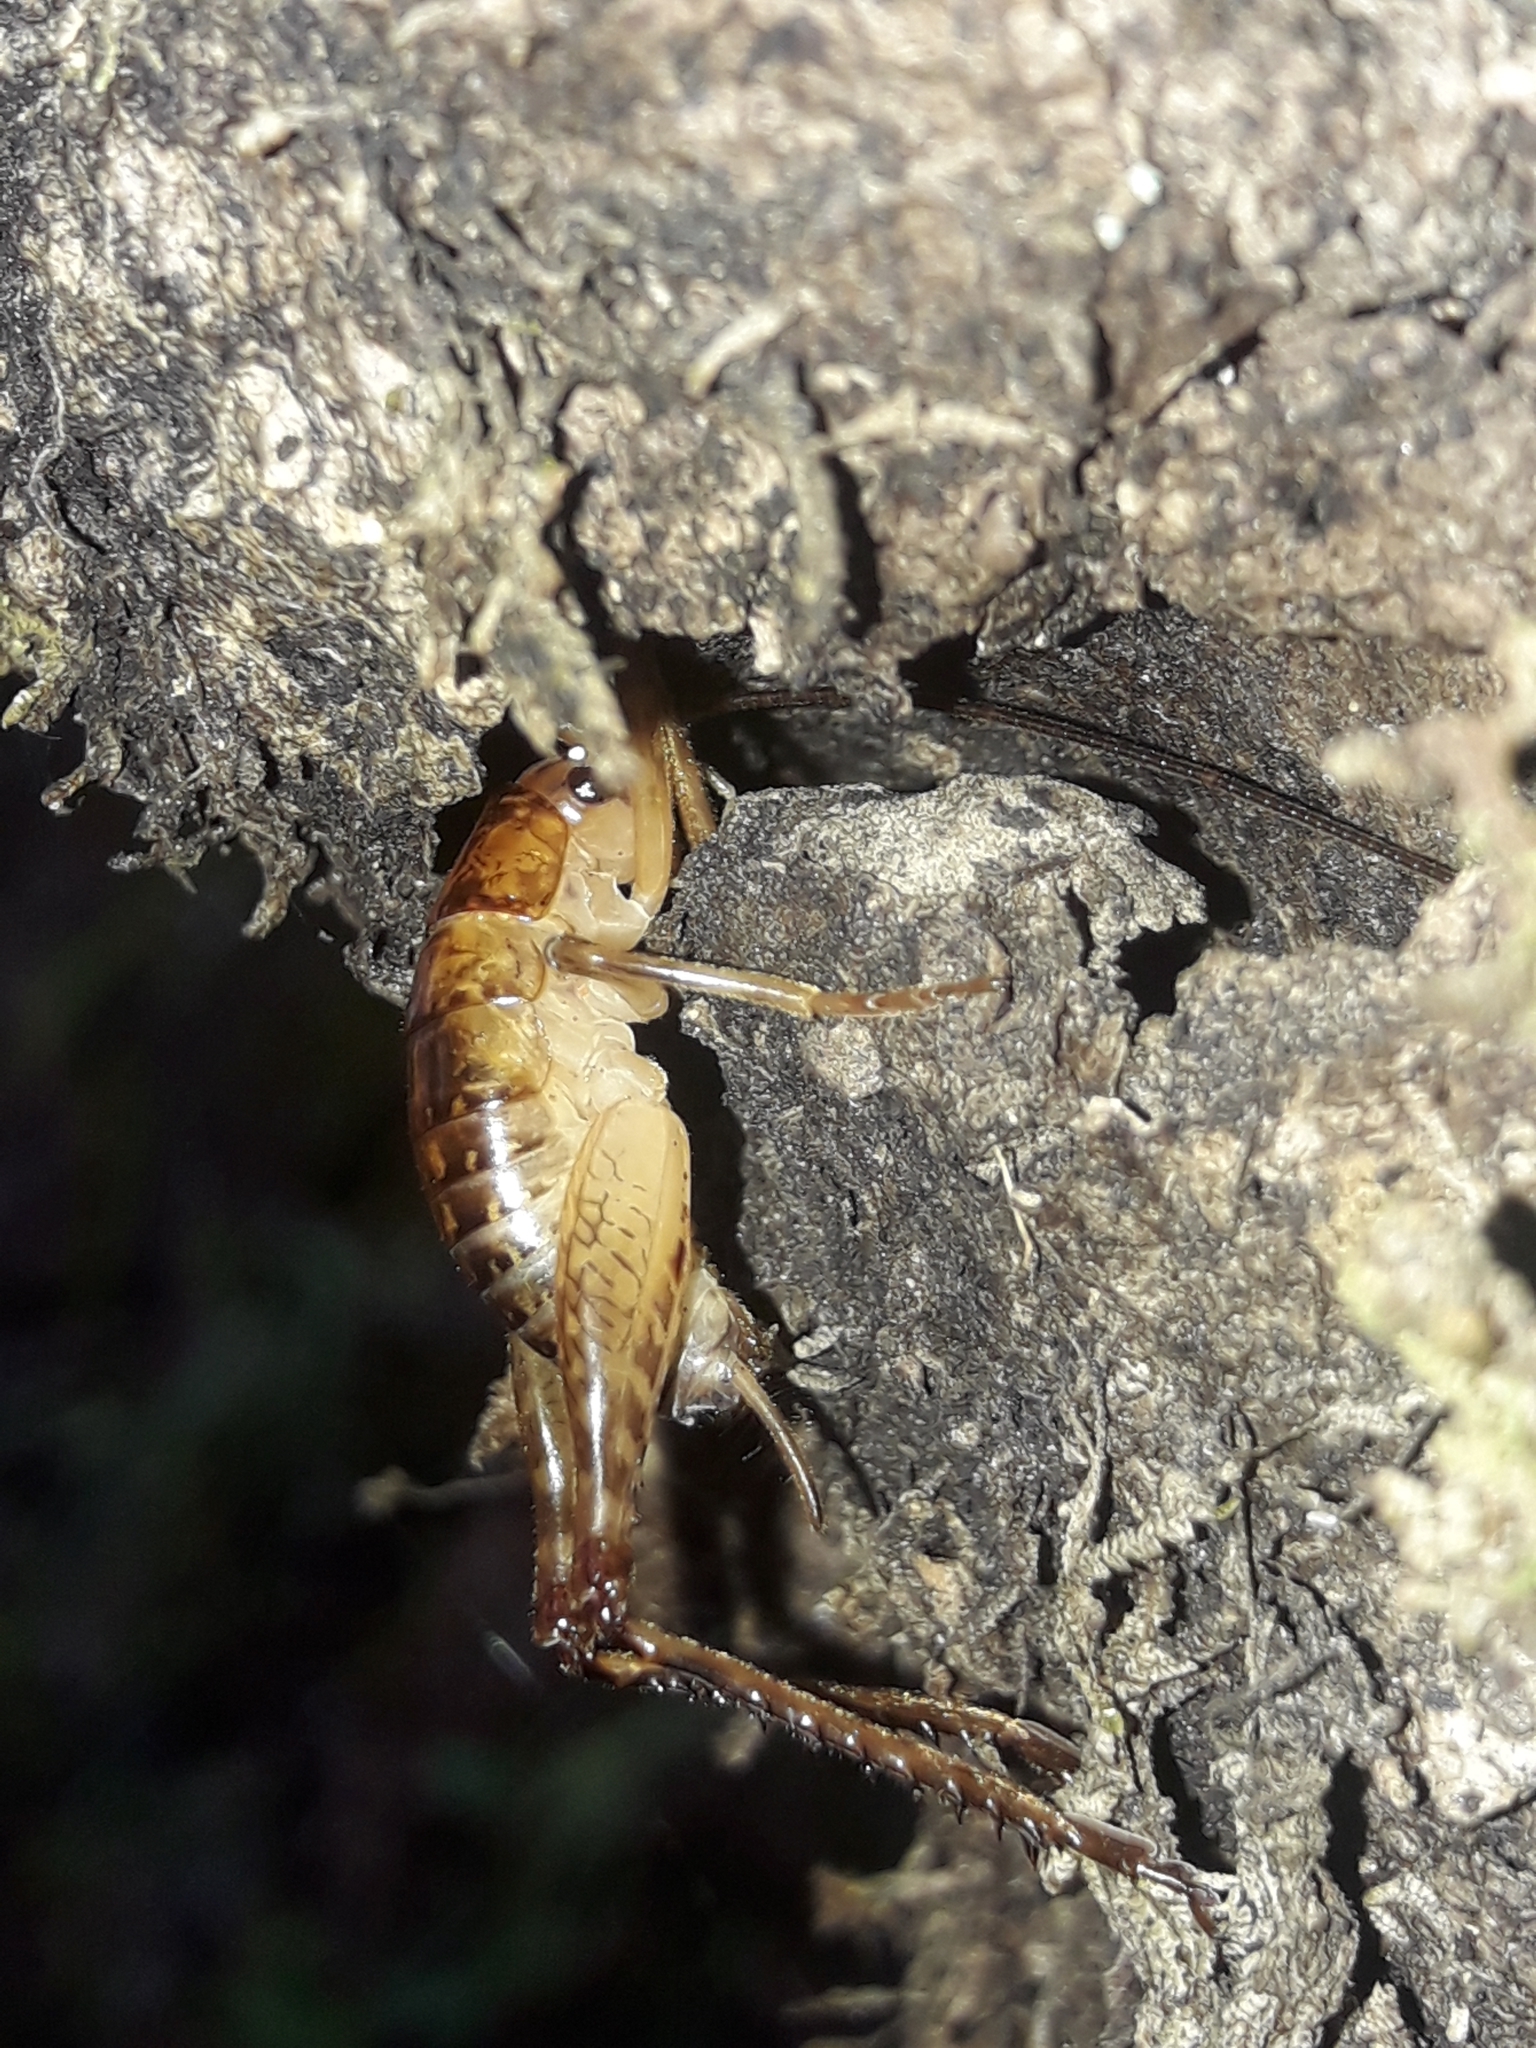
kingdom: Animalia
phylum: Arthropoda
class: Insecta
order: Orthoptera
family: Rhaphidophoridae
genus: Talitropsis
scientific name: Talitropsis sedilloti
